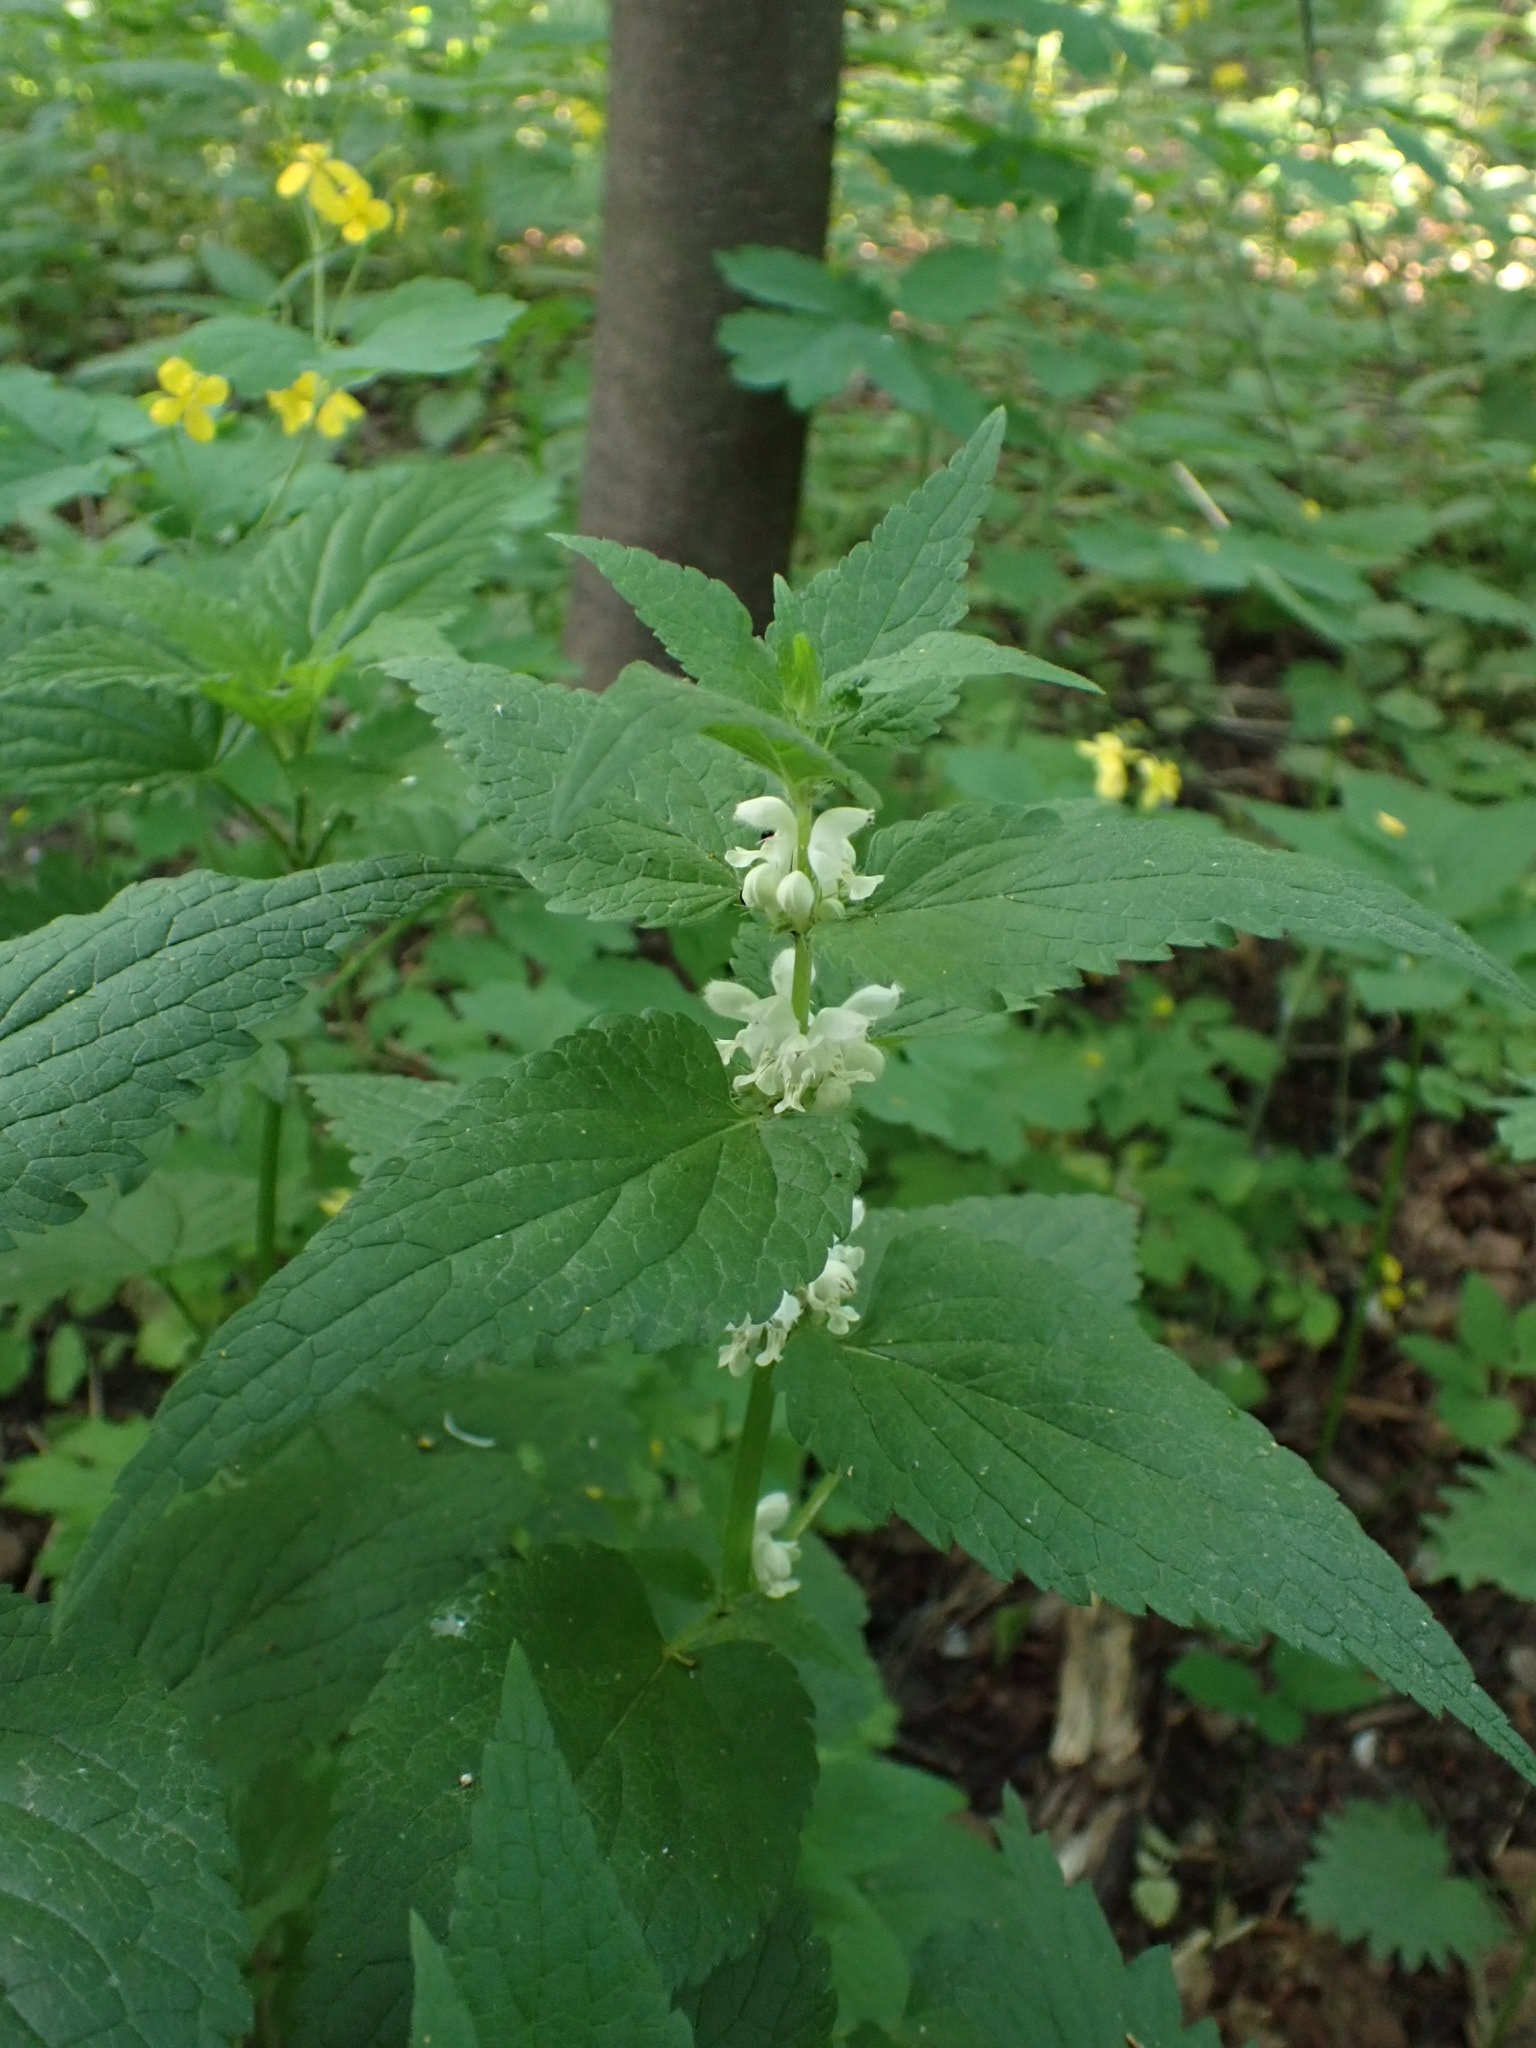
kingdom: Plantae
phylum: Tracheophyta
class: Magnoliopsida
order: Lamiales
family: Lamiaceae
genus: Lamium
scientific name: Lamium album
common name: White dead-nettle
